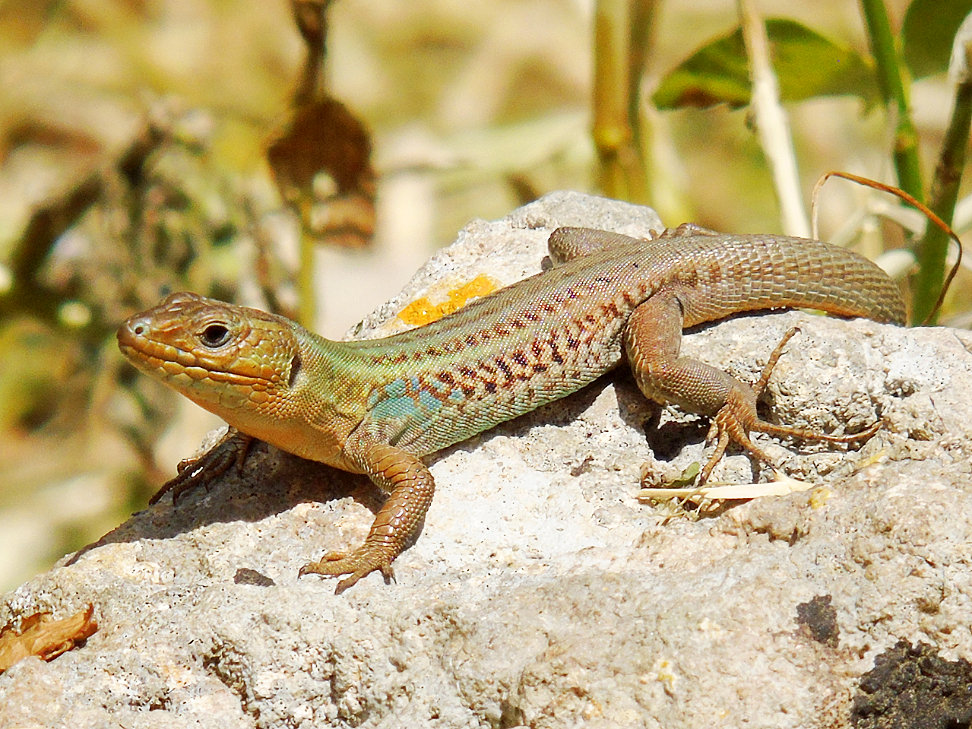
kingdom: Animalia
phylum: Chordata
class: Squamata
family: Lacertidae
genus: Podarcis
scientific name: Podarcis peloponnesiacus
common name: Peloponnese wall lizard
